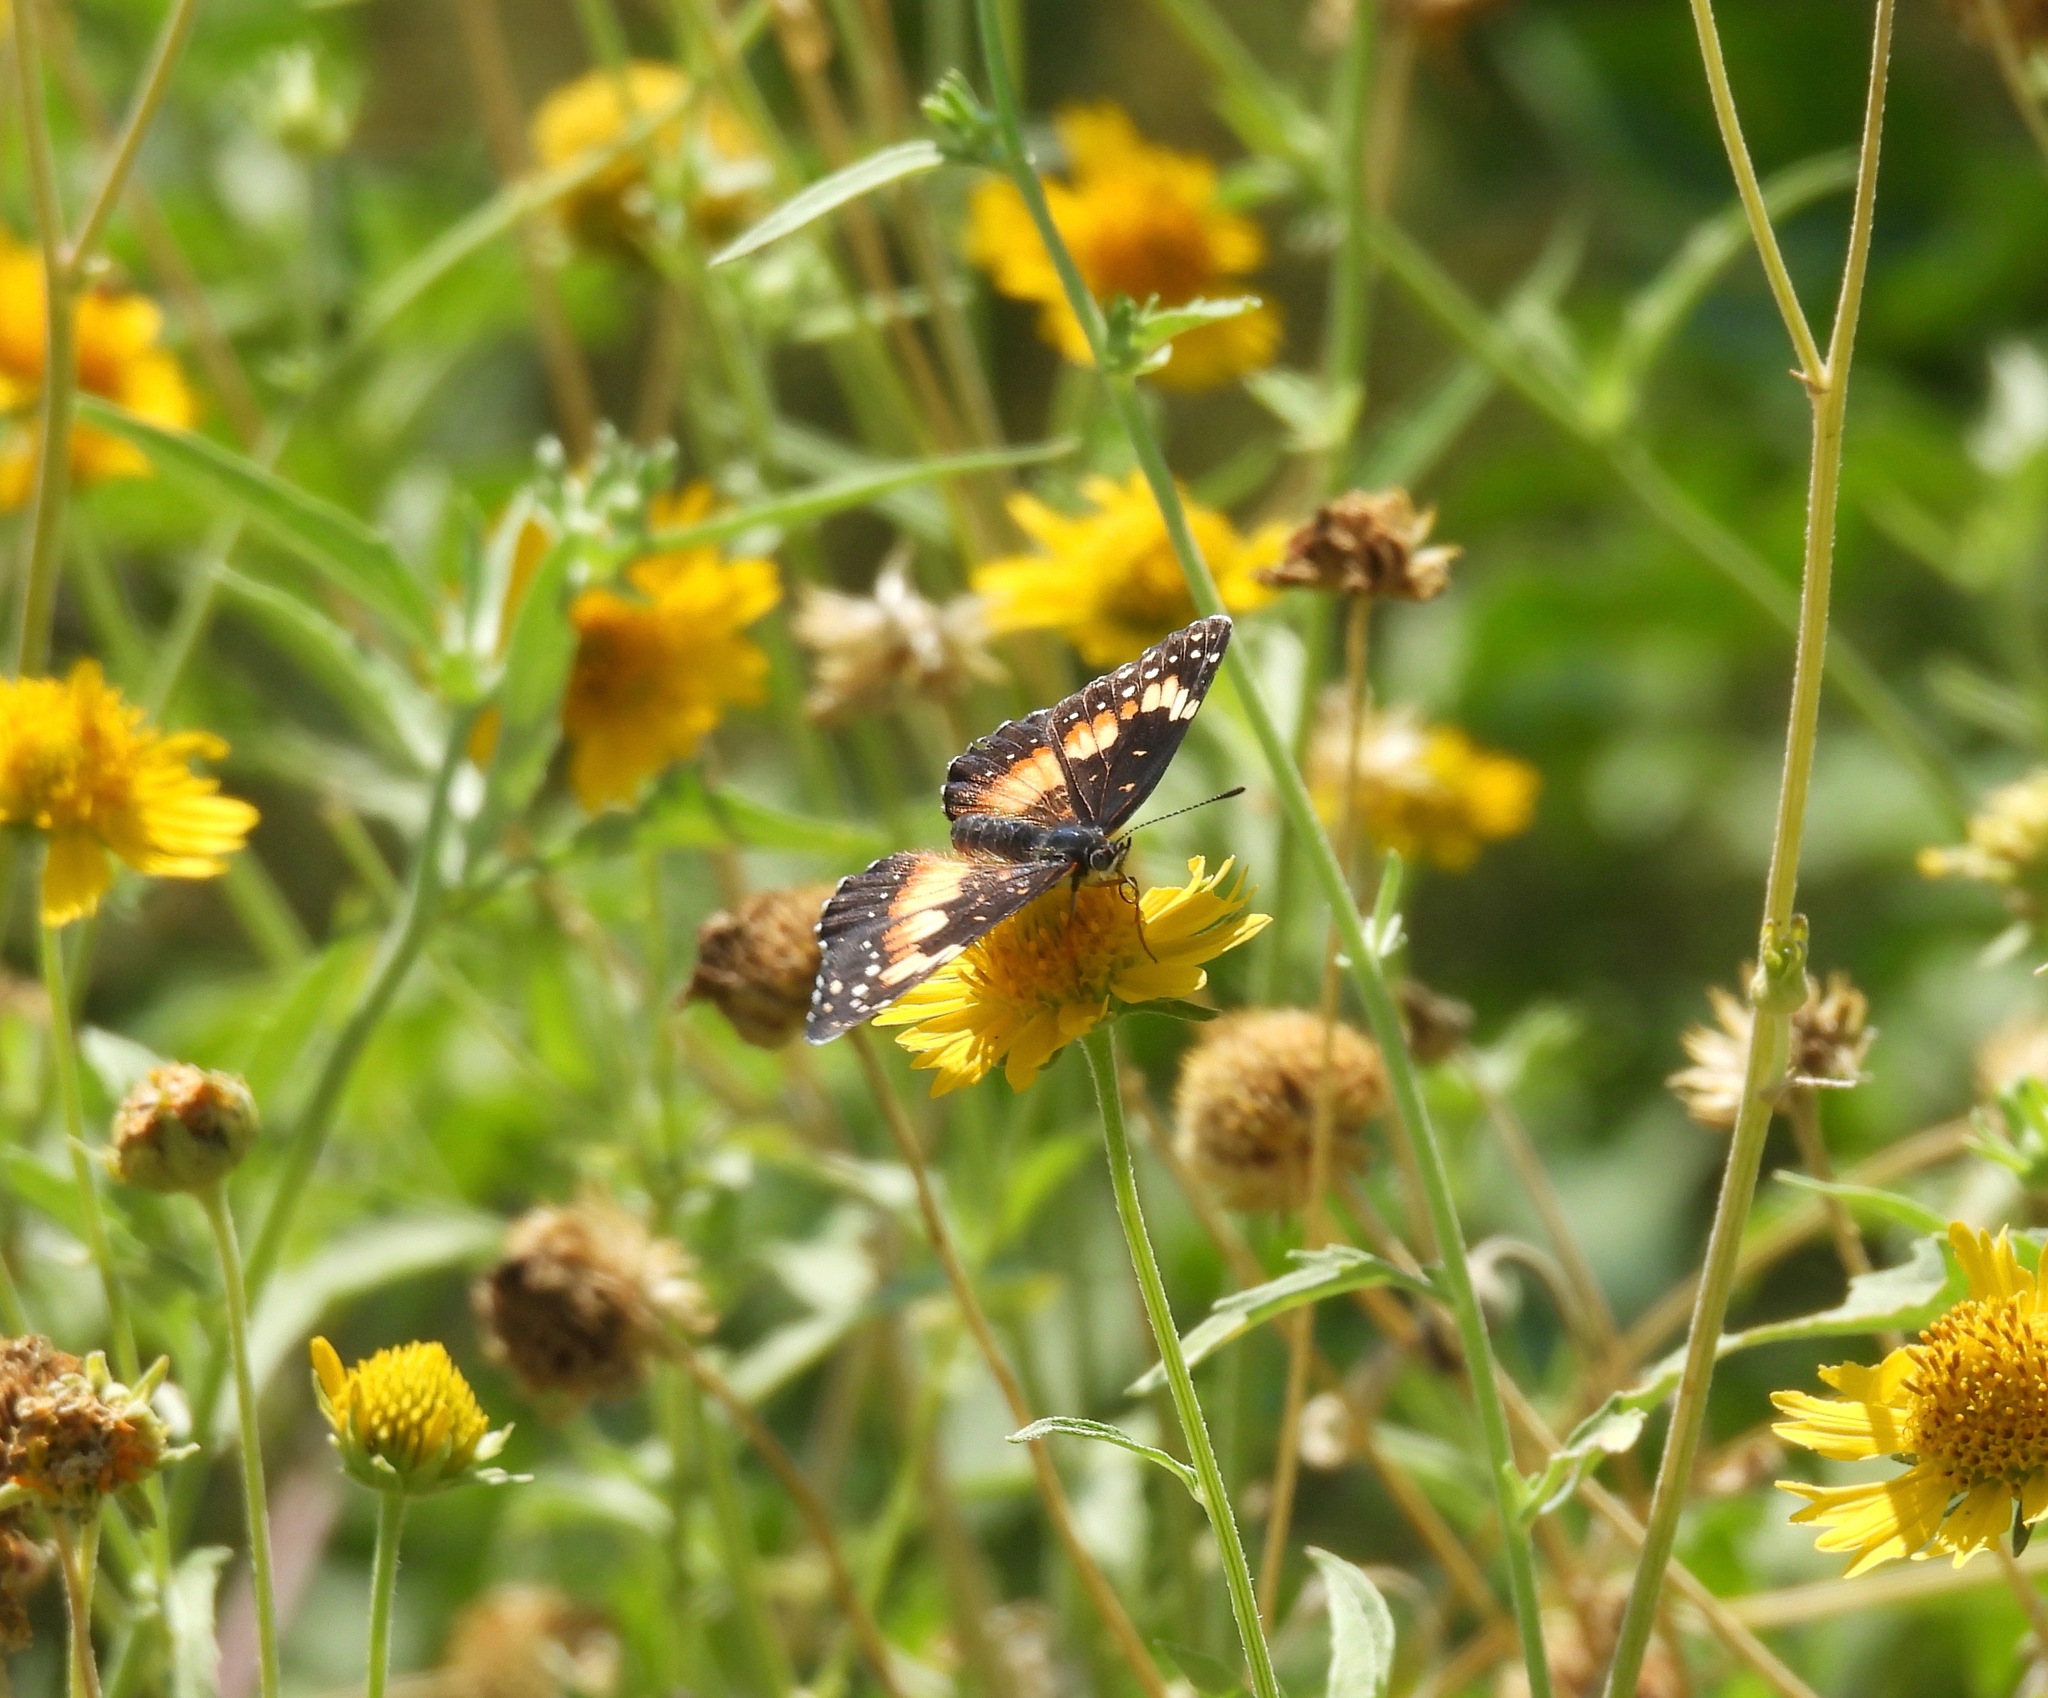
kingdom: Animalia
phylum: Arthropoda
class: Insecta
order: Lepidoptera
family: Nymphalidae
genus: Chlosyne
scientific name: Chlosyne lacinia
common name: Bordered patch
